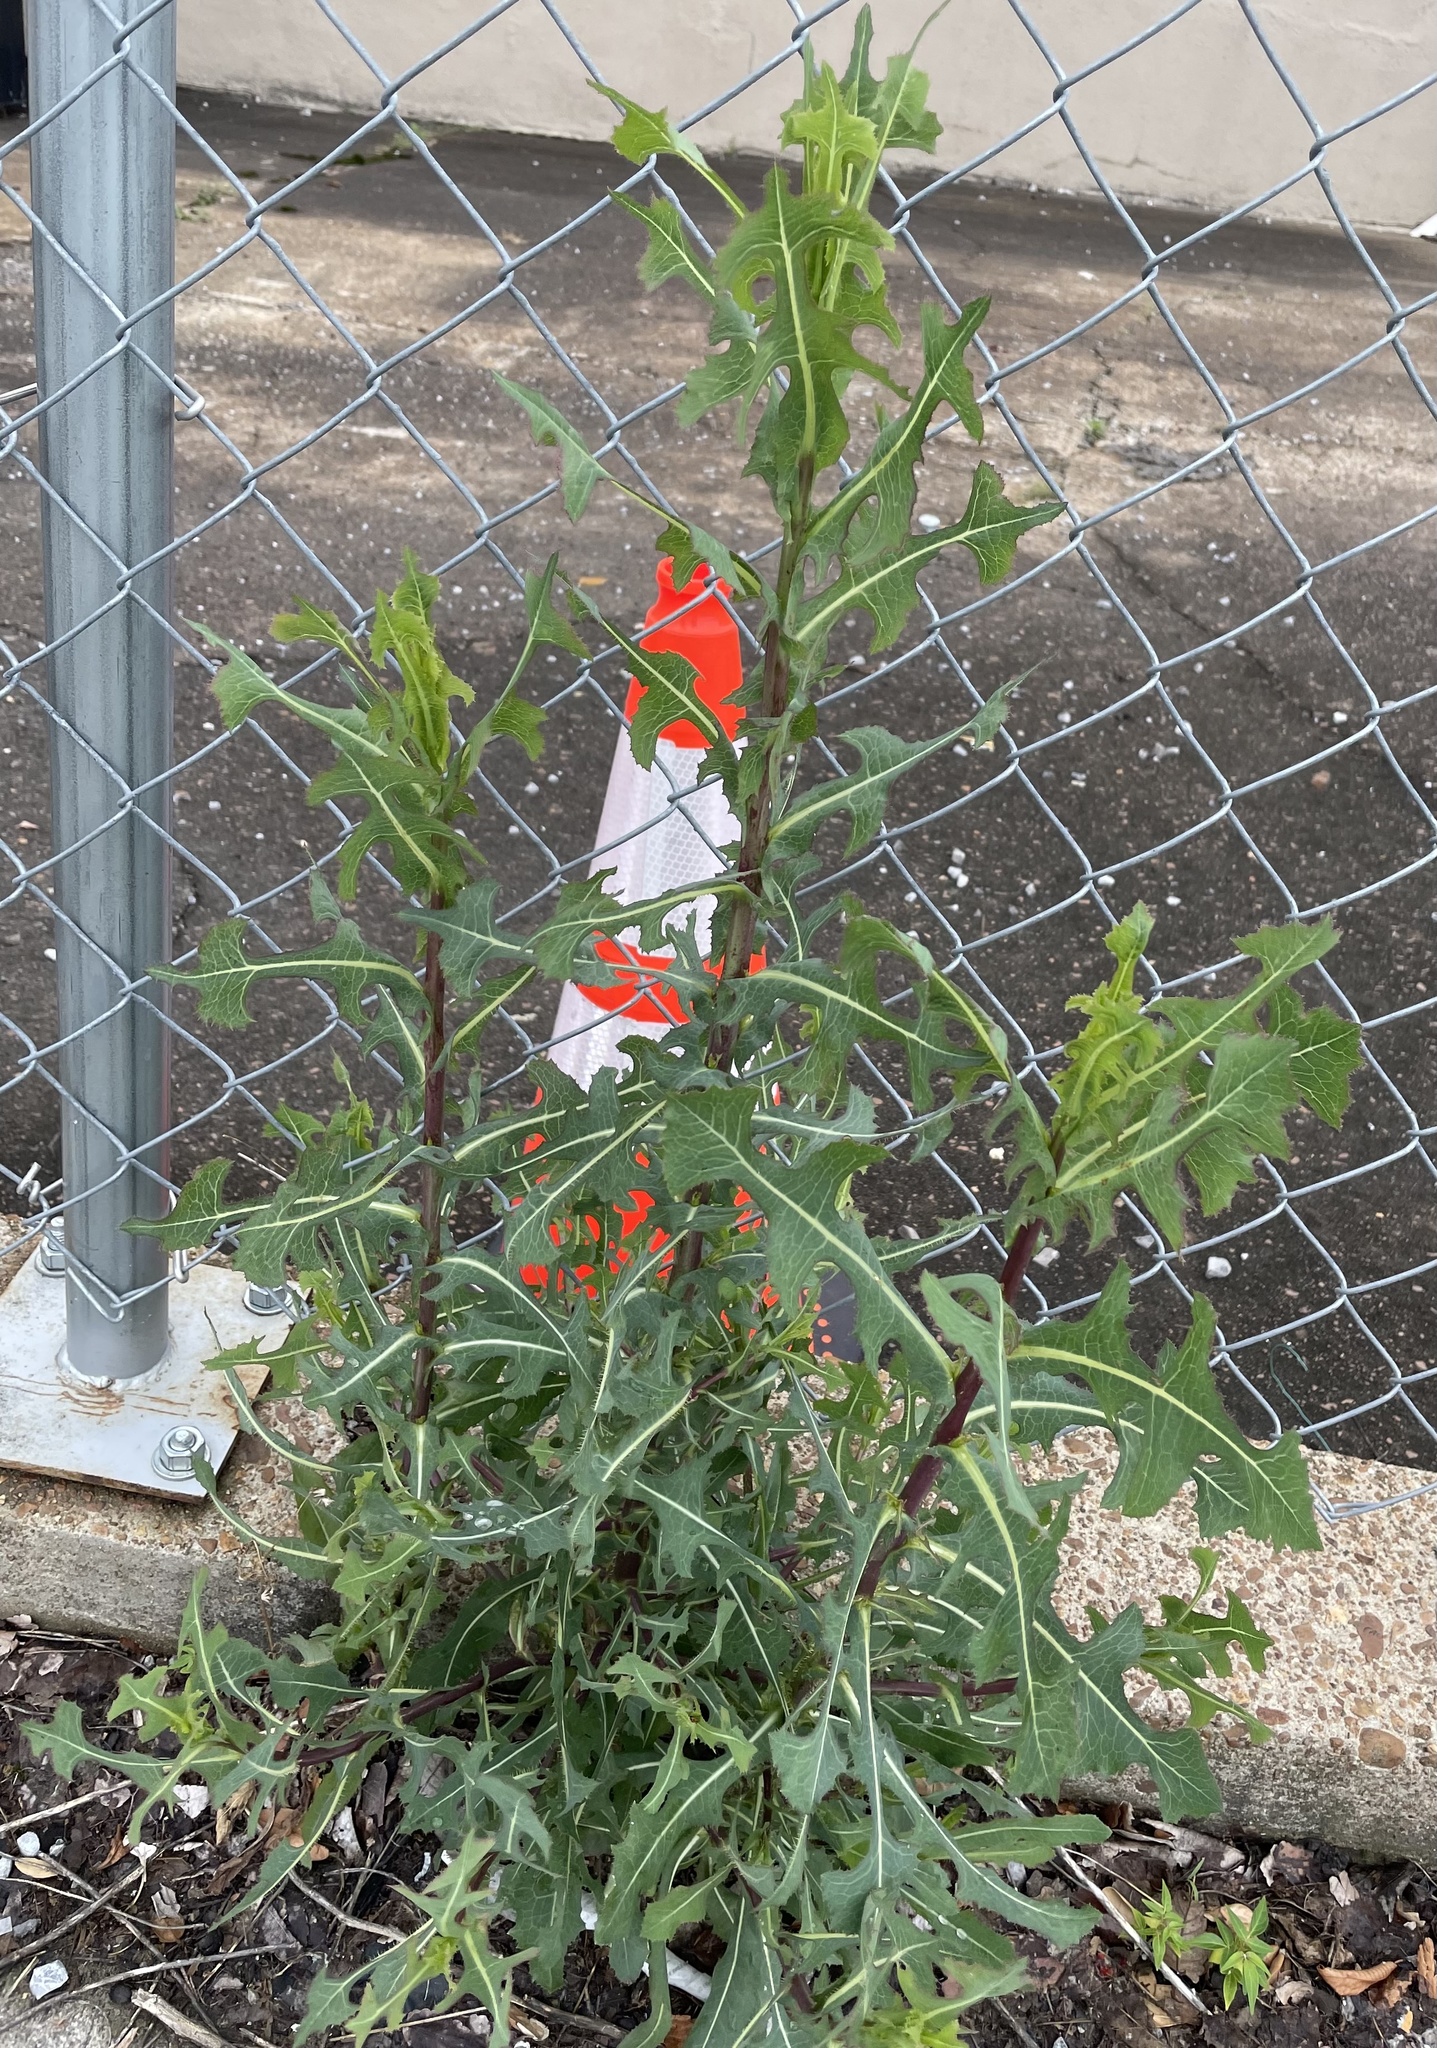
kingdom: Plantae
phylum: Tracheophyta
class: Magnoliopsida
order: Asterales
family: Asteraceae
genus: Lactuca
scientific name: Lactuca serriola
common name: Prickly lettuce
